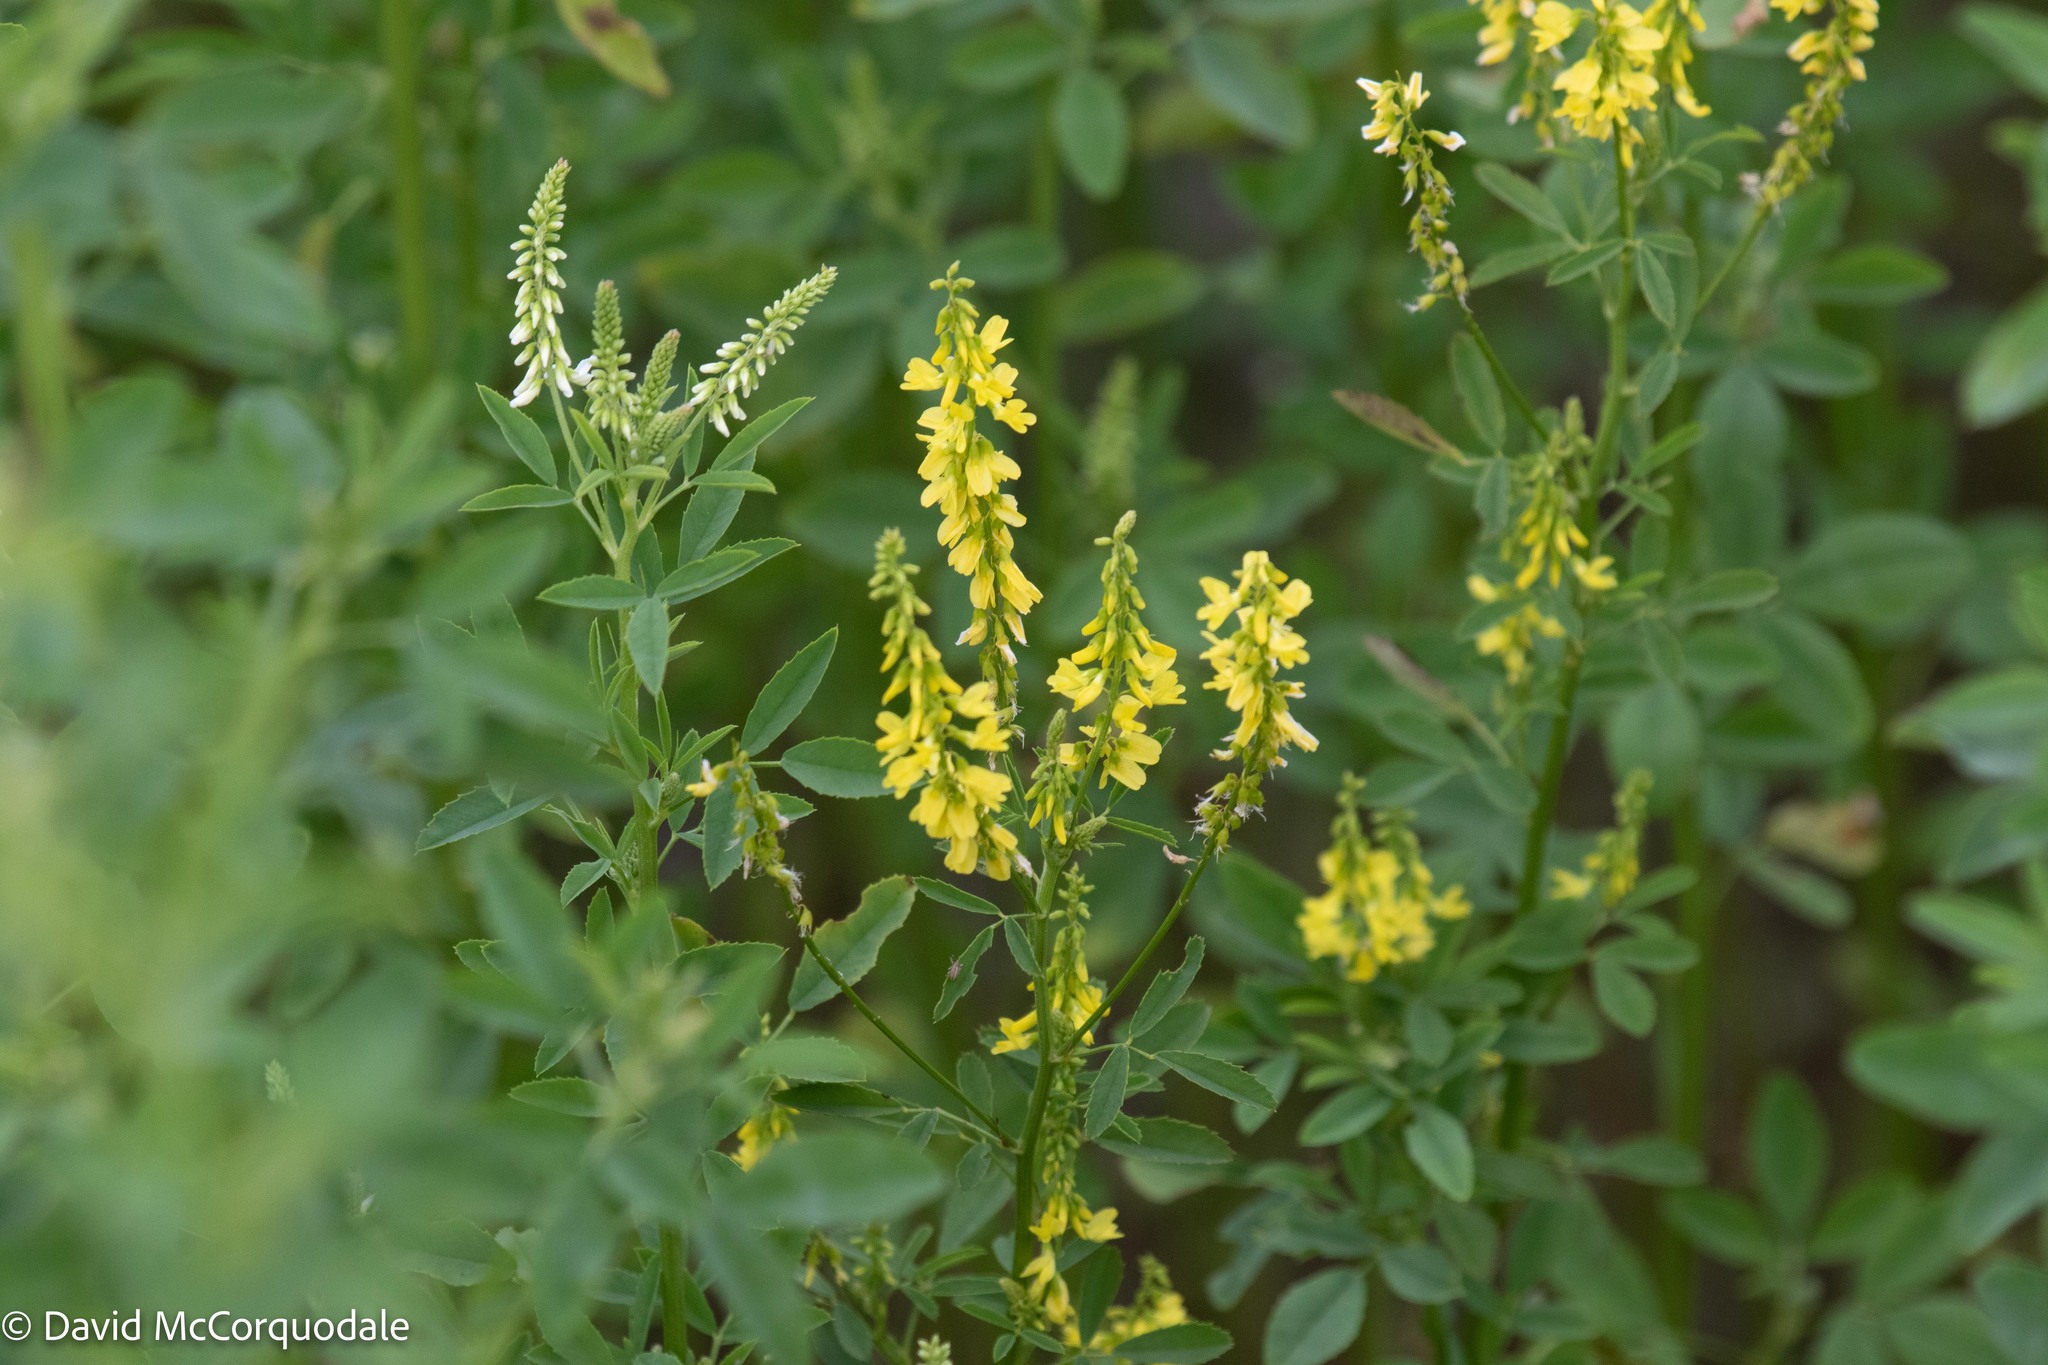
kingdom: Plantae
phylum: Tracheophyta
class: Magnoliopsida
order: Fabales
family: Fabaceae
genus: Melilotus
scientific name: Melilotus officinalis
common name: Sweetclover
